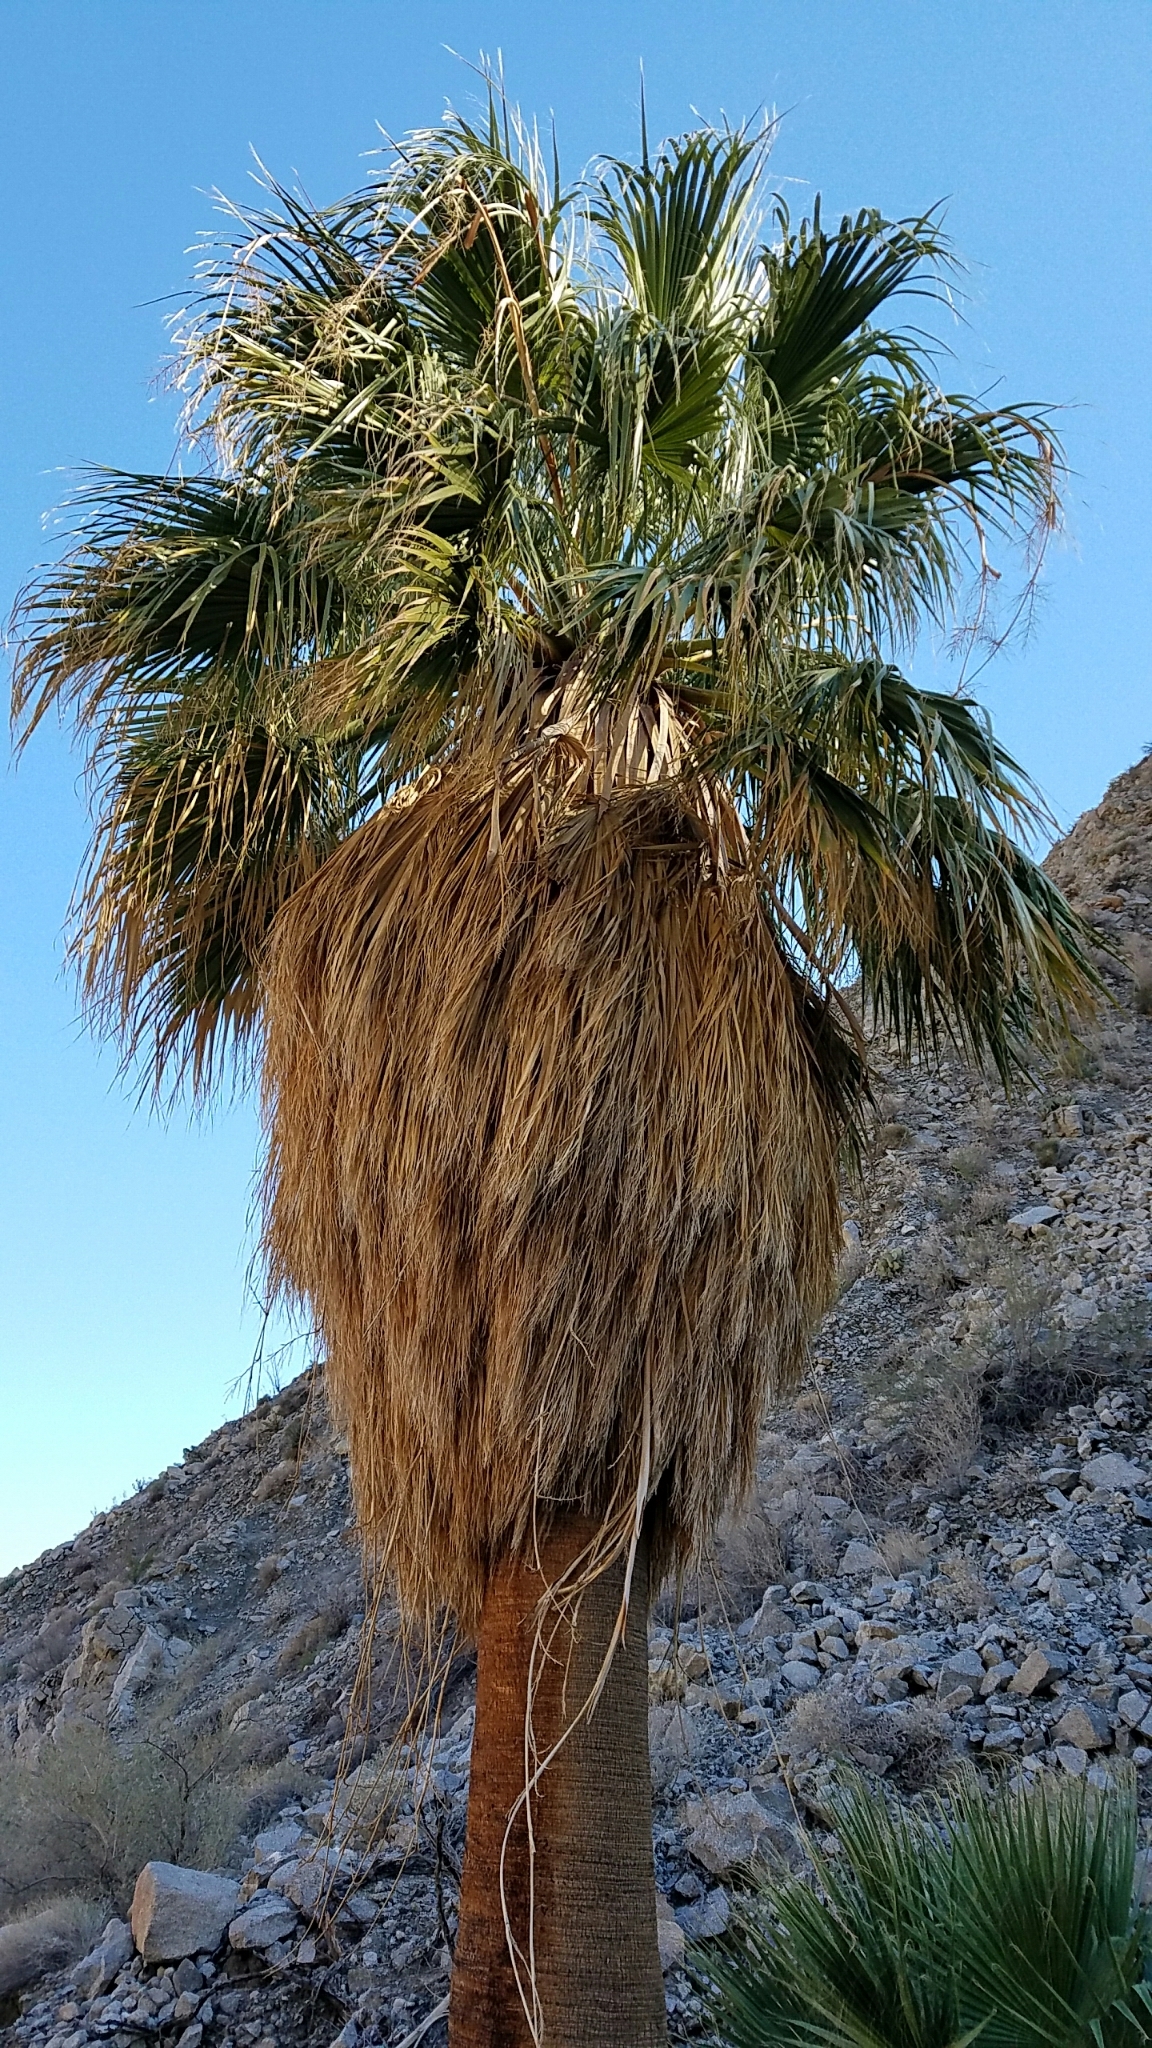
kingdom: Plantae
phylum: Tracheophyta
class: Liliopsida
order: Arecales
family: Arecaceae
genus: Washingtonia
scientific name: Washingtonia filifera
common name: California fan palm
